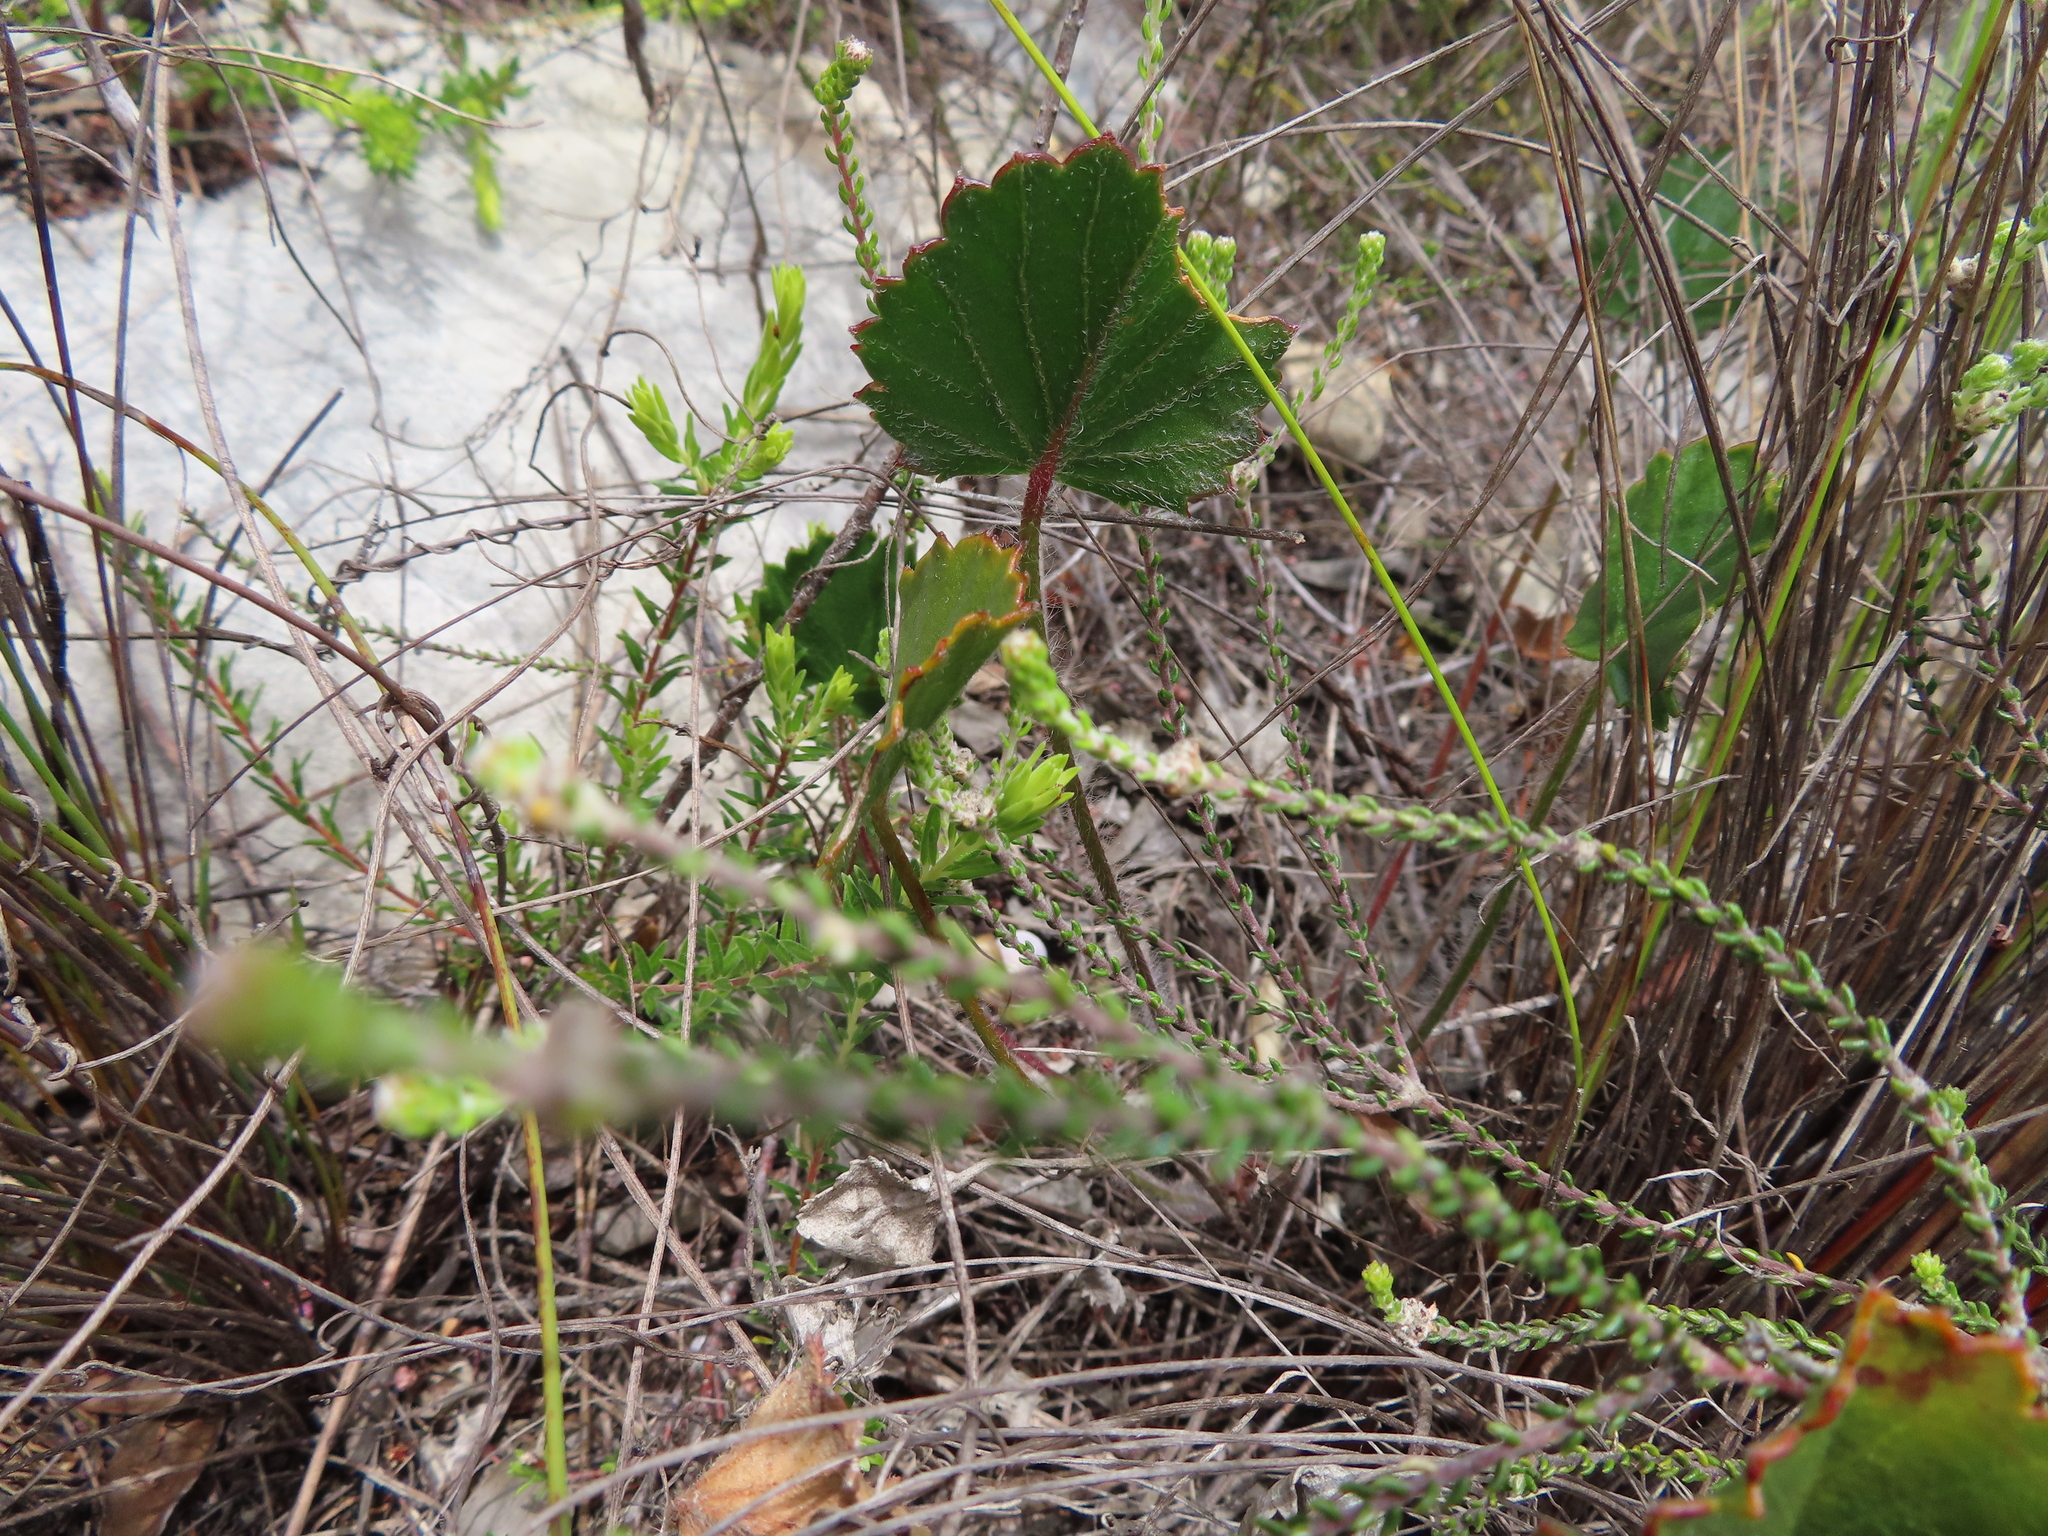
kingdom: Plantae
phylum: Tracheophyta
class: Magnoliopsida
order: Geraniales
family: Geraniaceae
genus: Pelargonium
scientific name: Pelargonium elegans
